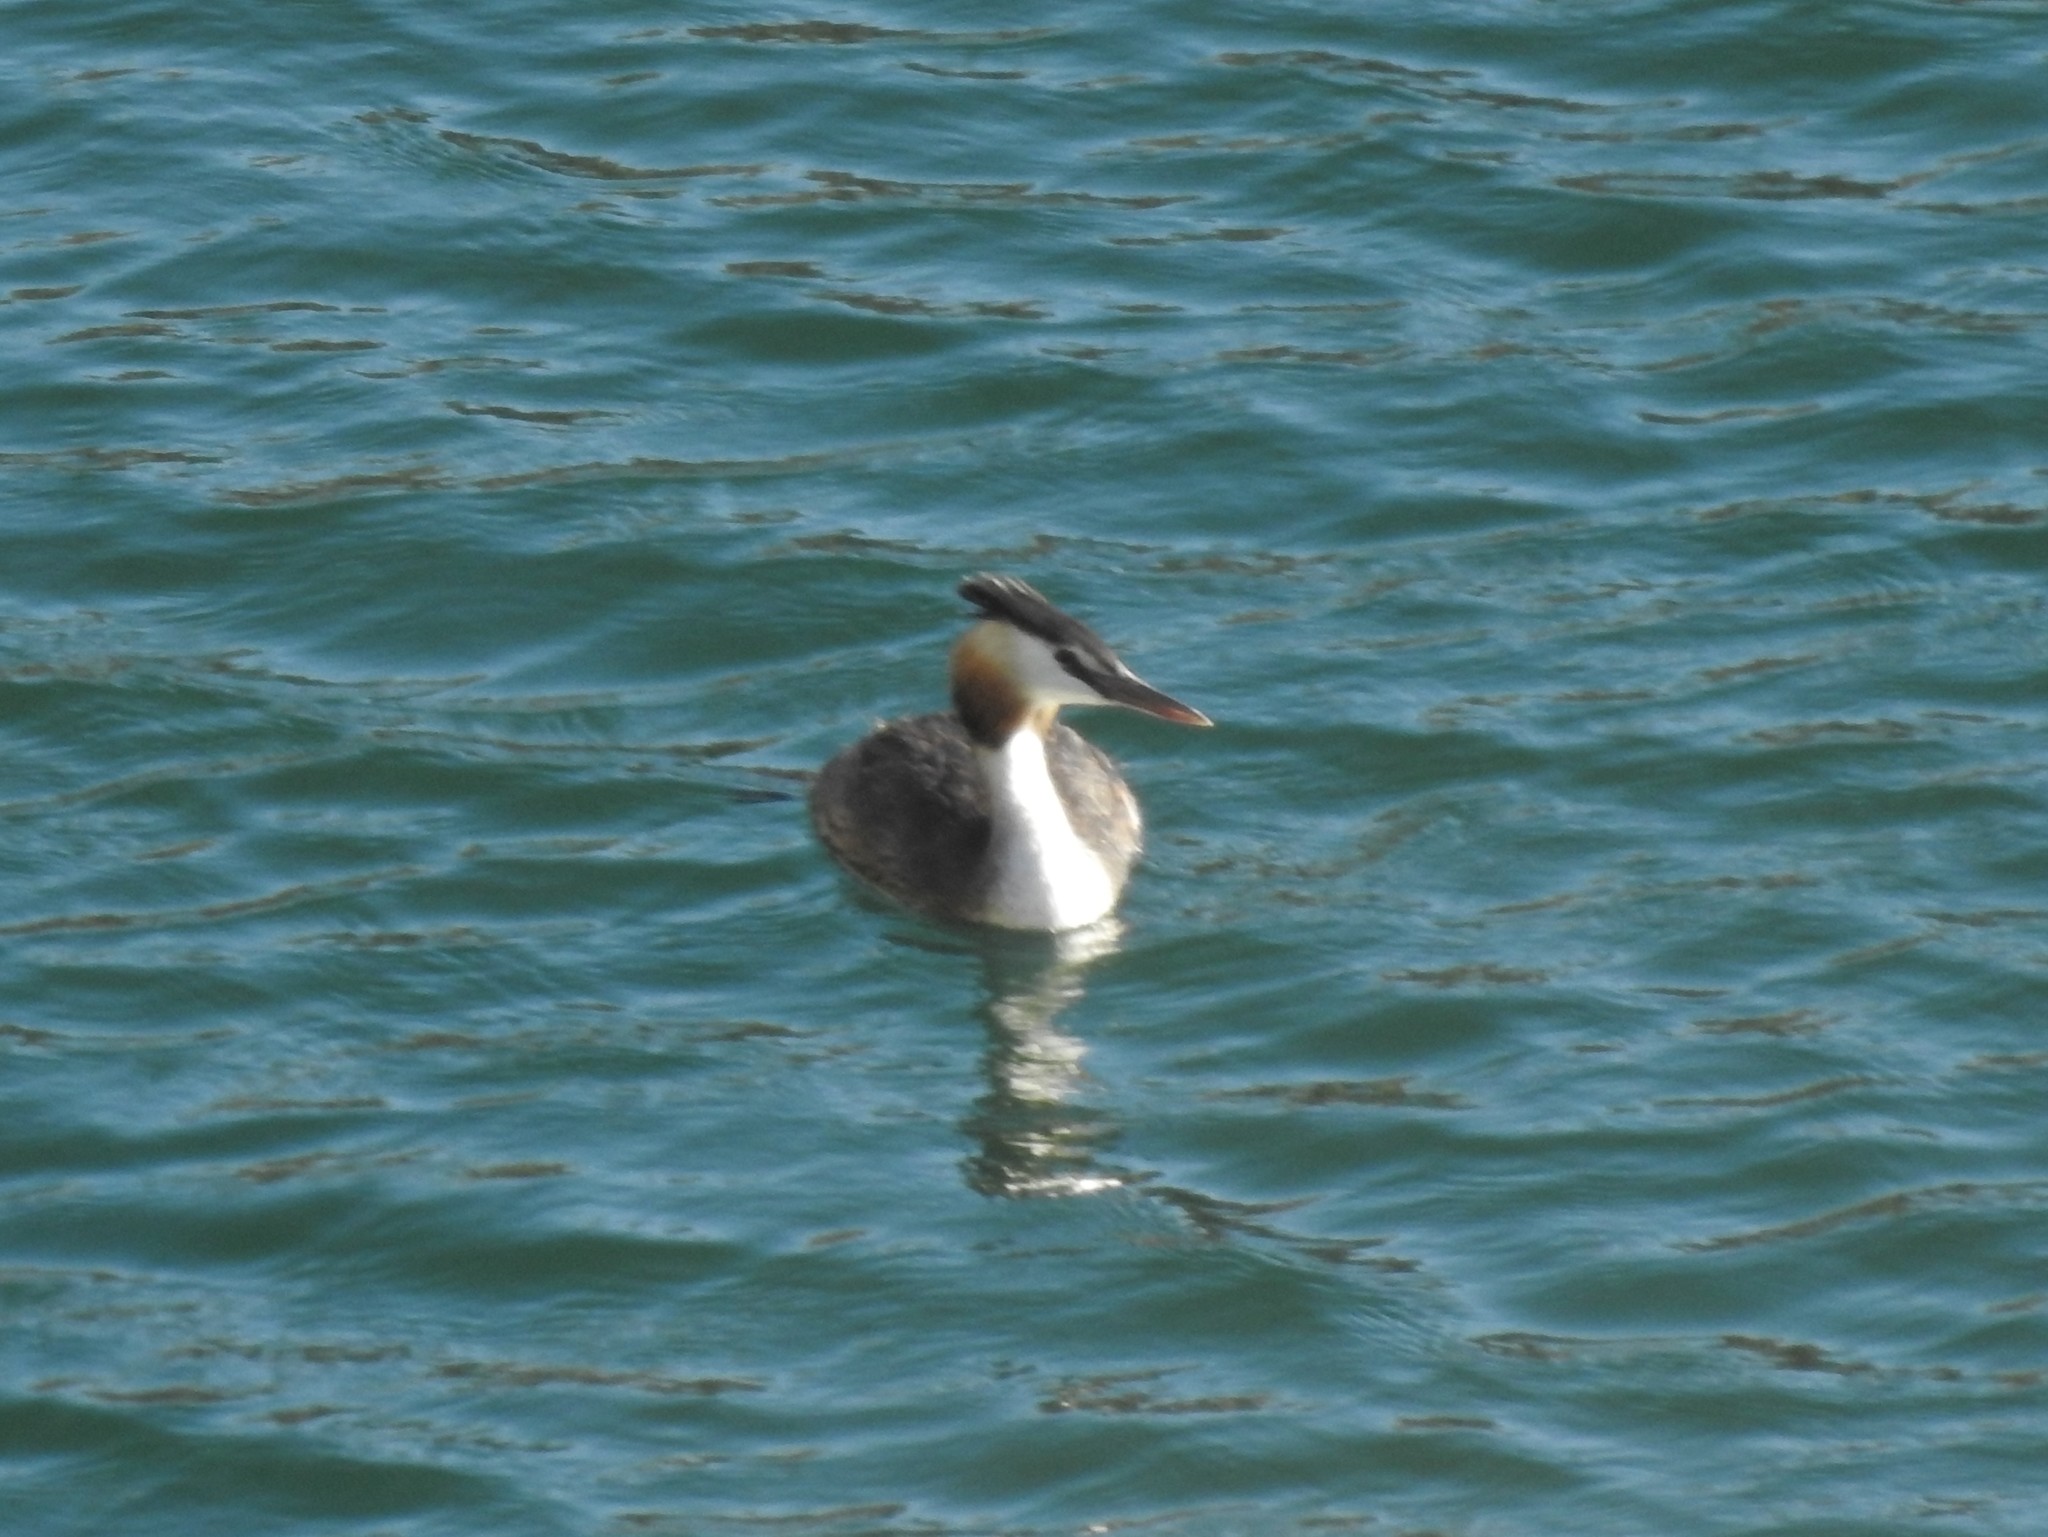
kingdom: Animalia
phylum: Chordata
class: Aves
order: Podicipediformes
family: Podicipedidae
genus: Podiceps
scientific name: Podiceps cristatus
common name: Great crested grebe
